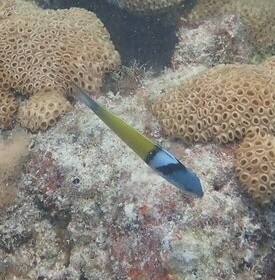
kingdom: Animalia
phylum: Chordata
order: Perciformes
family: Labridae
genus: Thalassoma
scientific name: Thalassoma bifasciatum
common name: Bluehead wrasse
